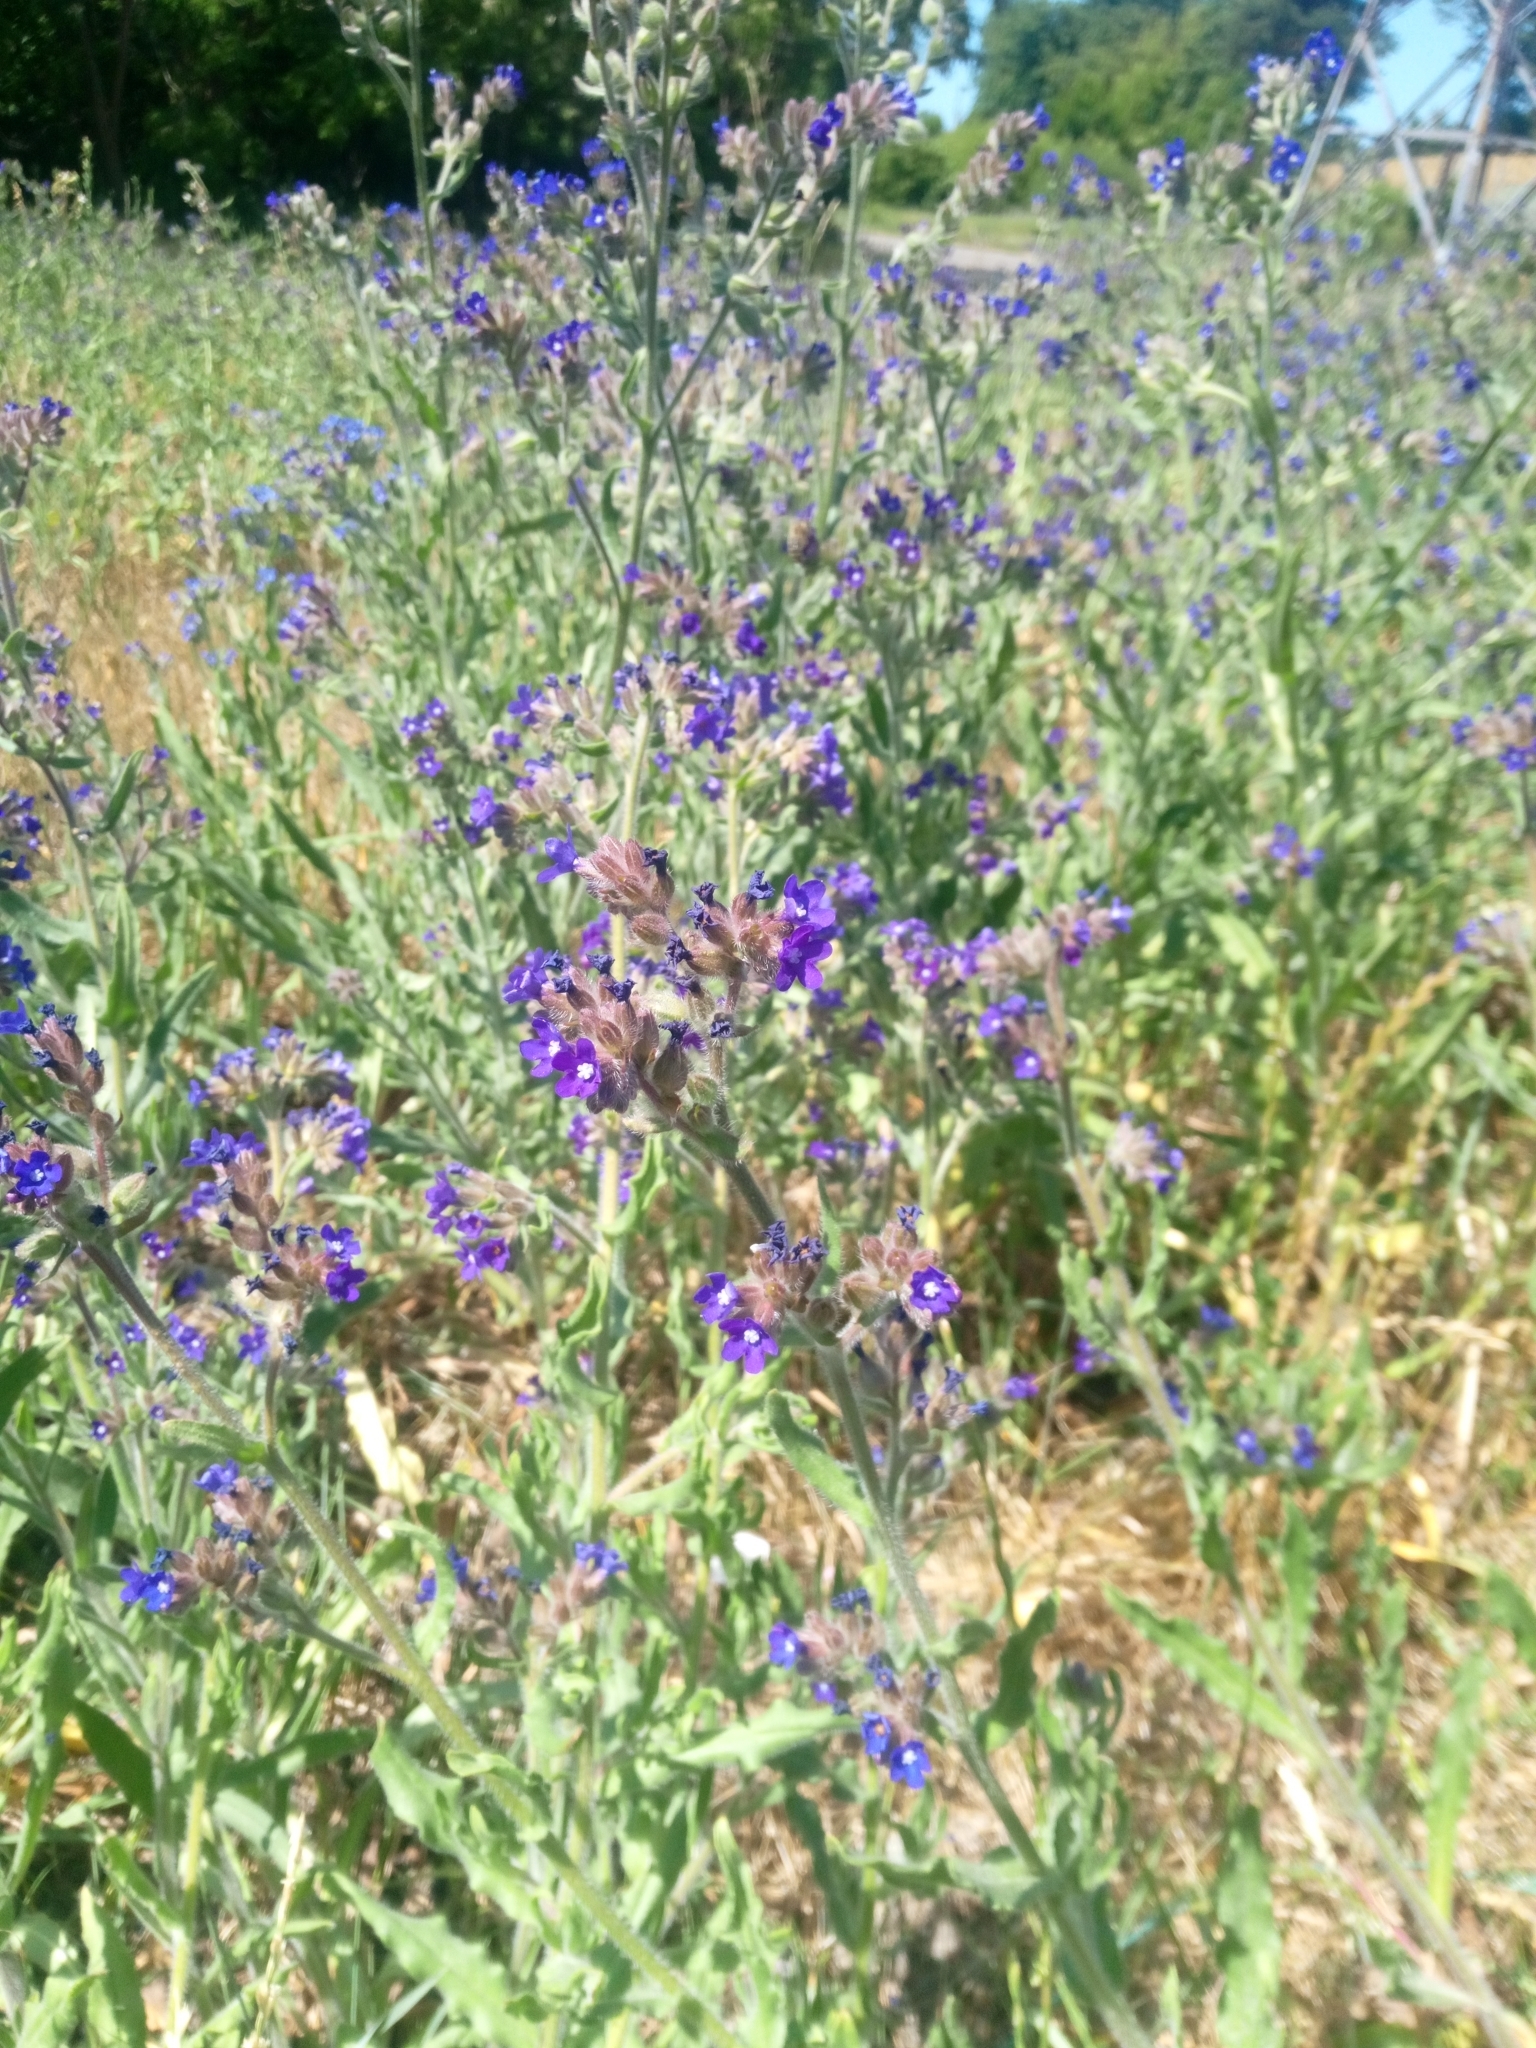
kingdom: Plantae
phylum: Tracheophyta
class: Magnoliopsida
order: Boraginales
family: Boraginaceae
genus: Anchusa
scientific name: Anchusa officinalis
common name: Alkanet
